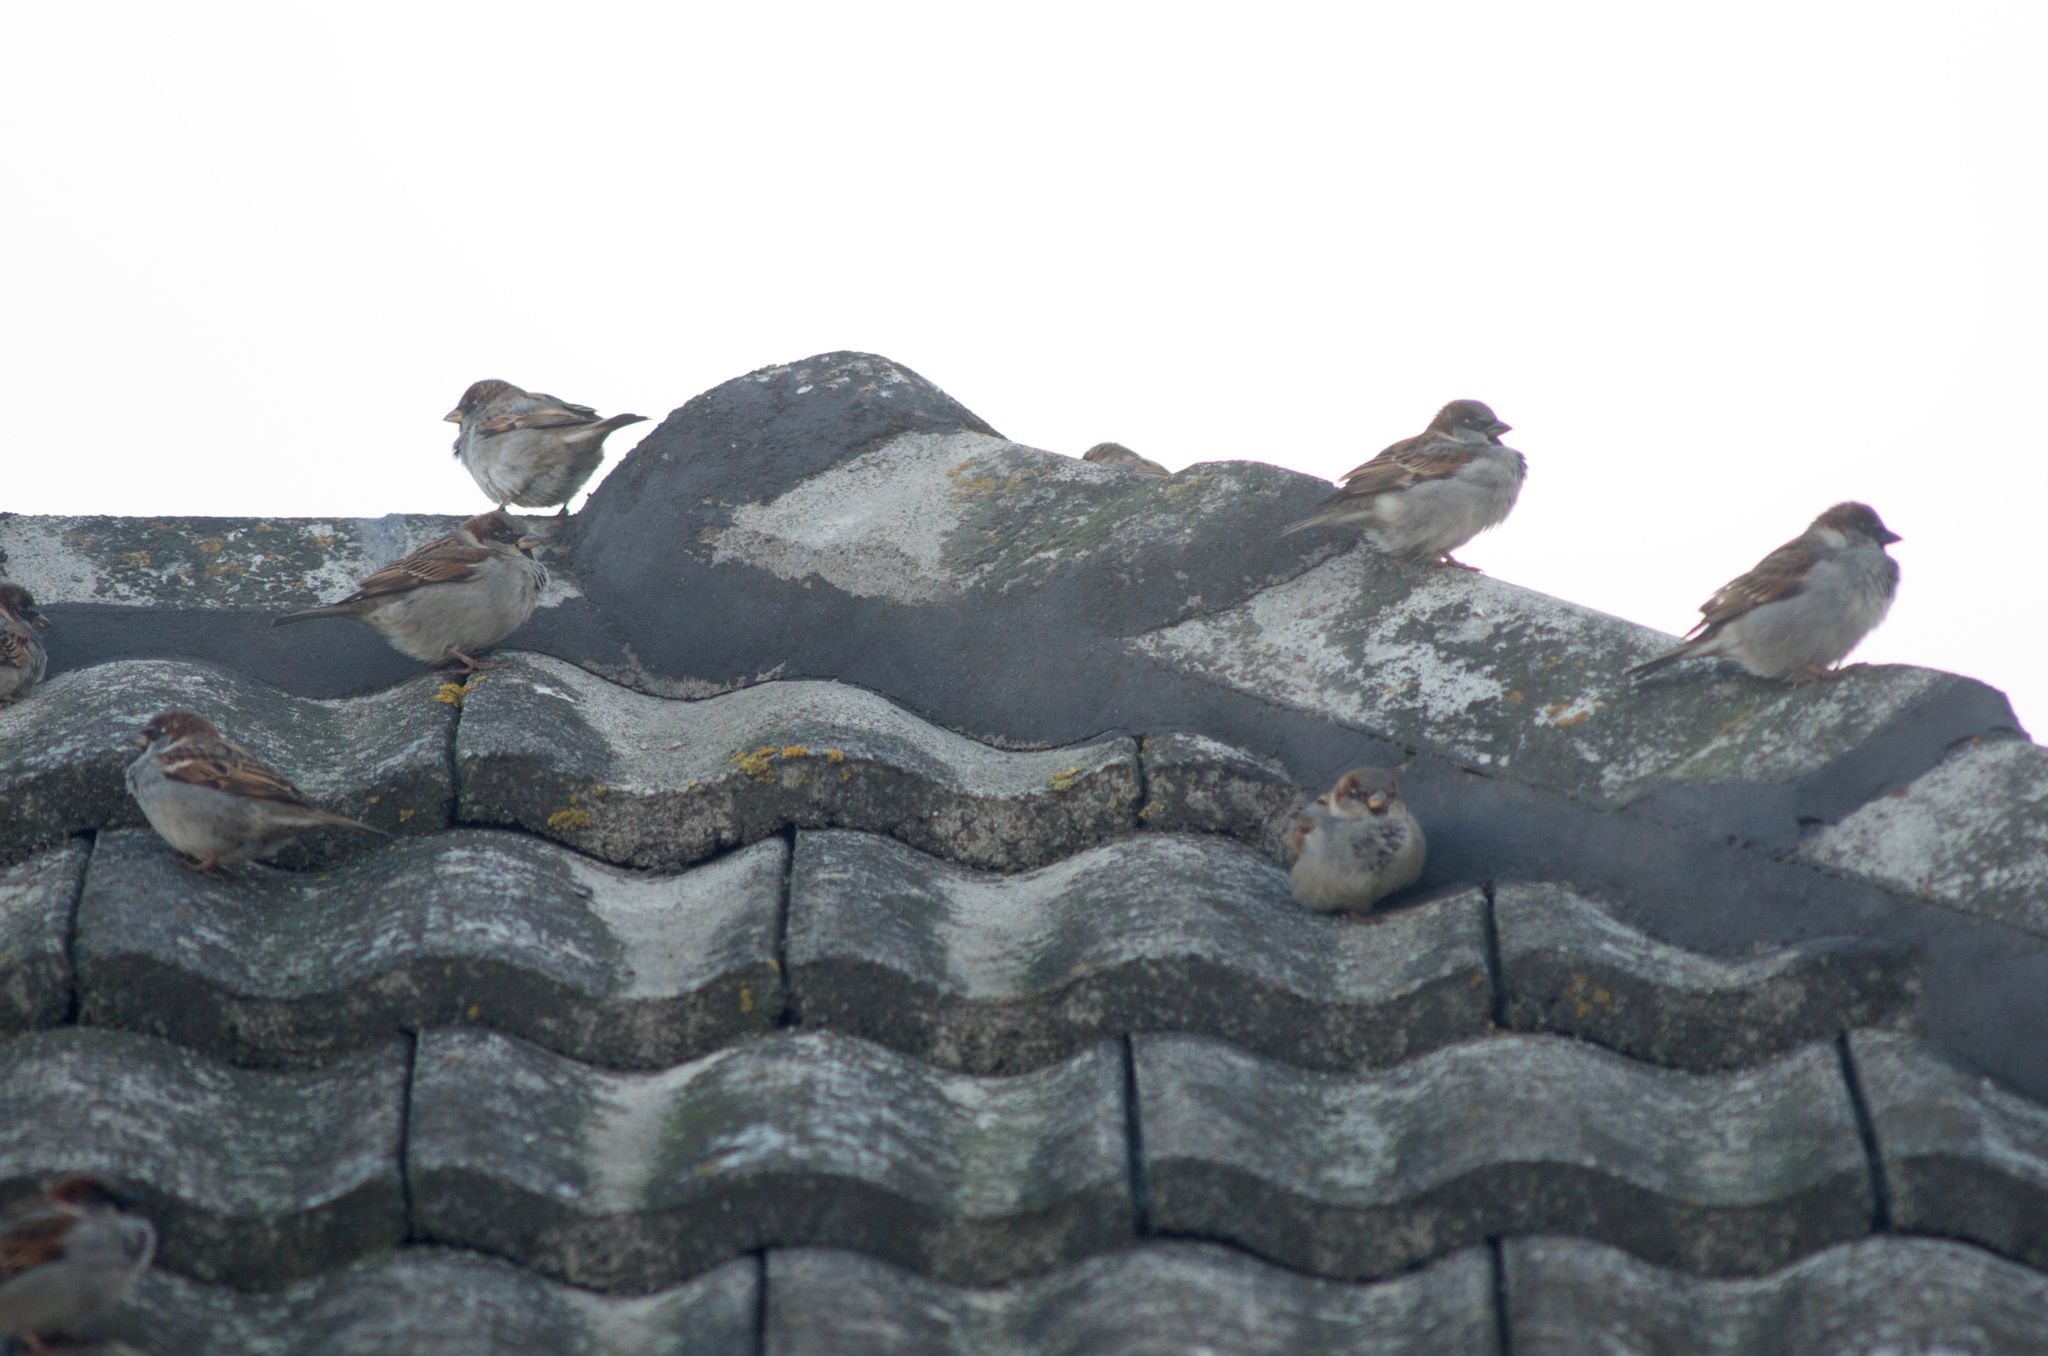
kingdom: Animalia
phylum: Chordata
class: Aves
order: Passeriformes
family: Passeridae
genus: Passer
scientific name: Passer domesticus
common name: House sparrow
